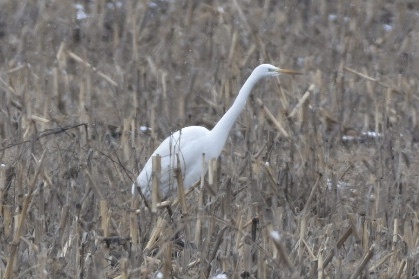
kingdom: Animalia
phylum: Chordata
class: Aves
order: Pelecaniformes
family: Ardeidae
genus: Ardea
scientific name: Ardea alba
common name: Great egret
